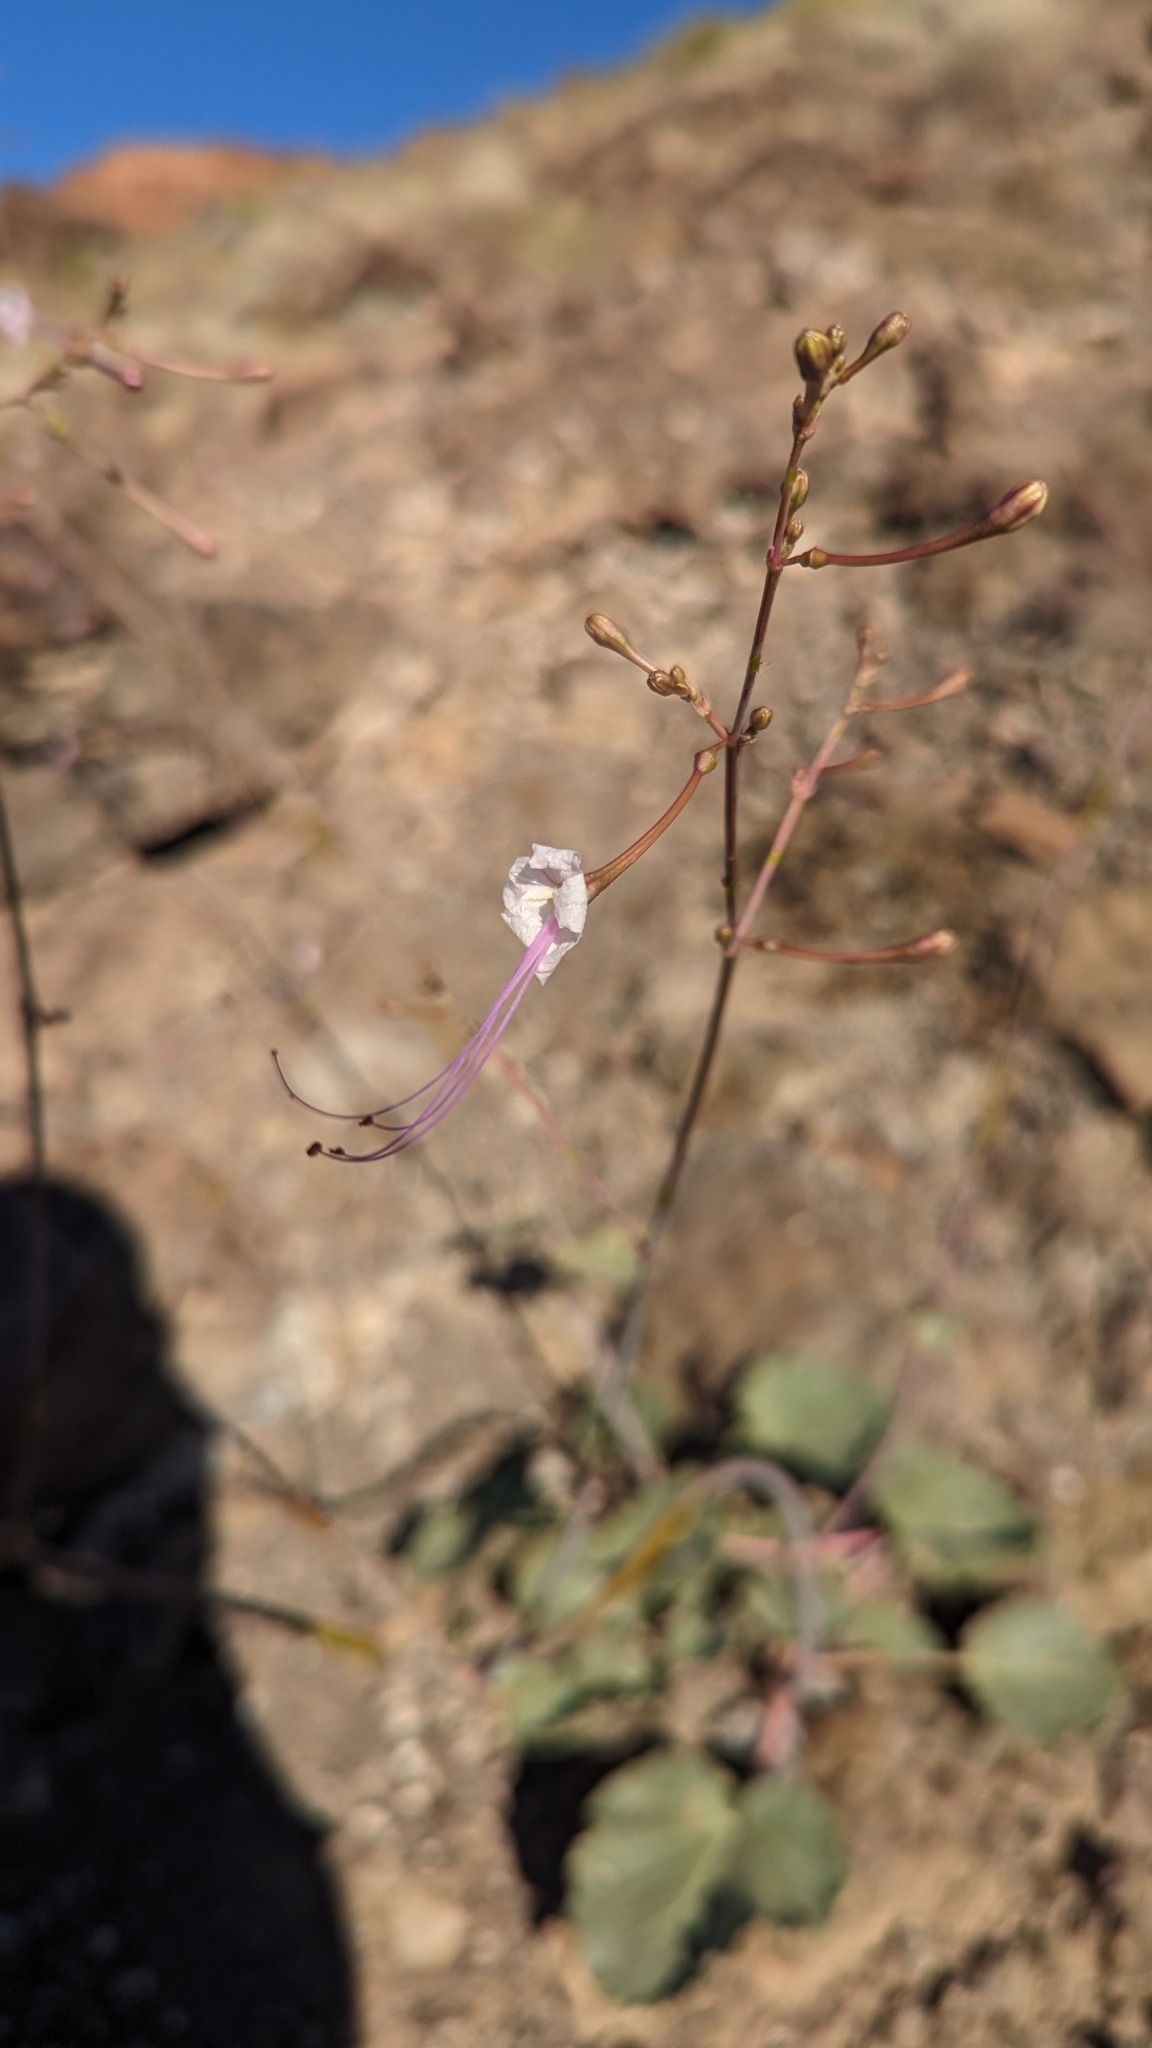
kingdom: Plantae
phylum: Tracheophyta
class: Magnoliopsida
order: Caryophyllales
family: Nyctaginaceae
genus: Anulocaulis
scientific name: Anulocaulis leiosolenus
